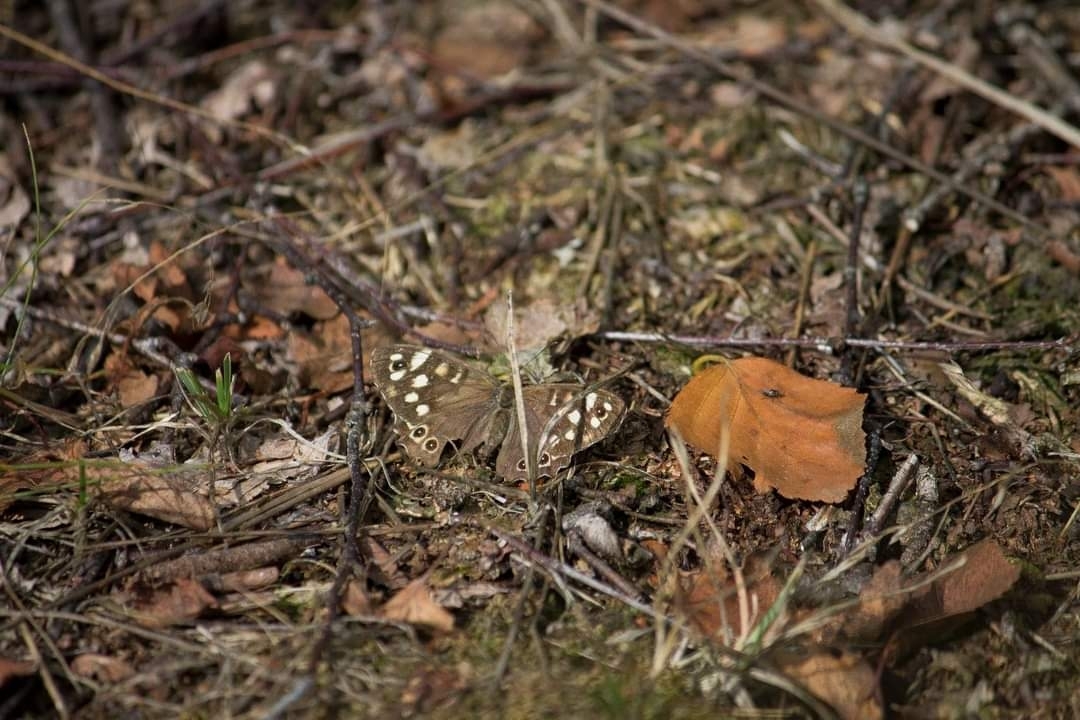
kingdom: Animalia
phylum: Arthropoda
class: Insecta
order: Lepidoptera
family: Nymphalidae
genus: Pararge
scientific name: Pararge aegeria
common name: Speckled wood
